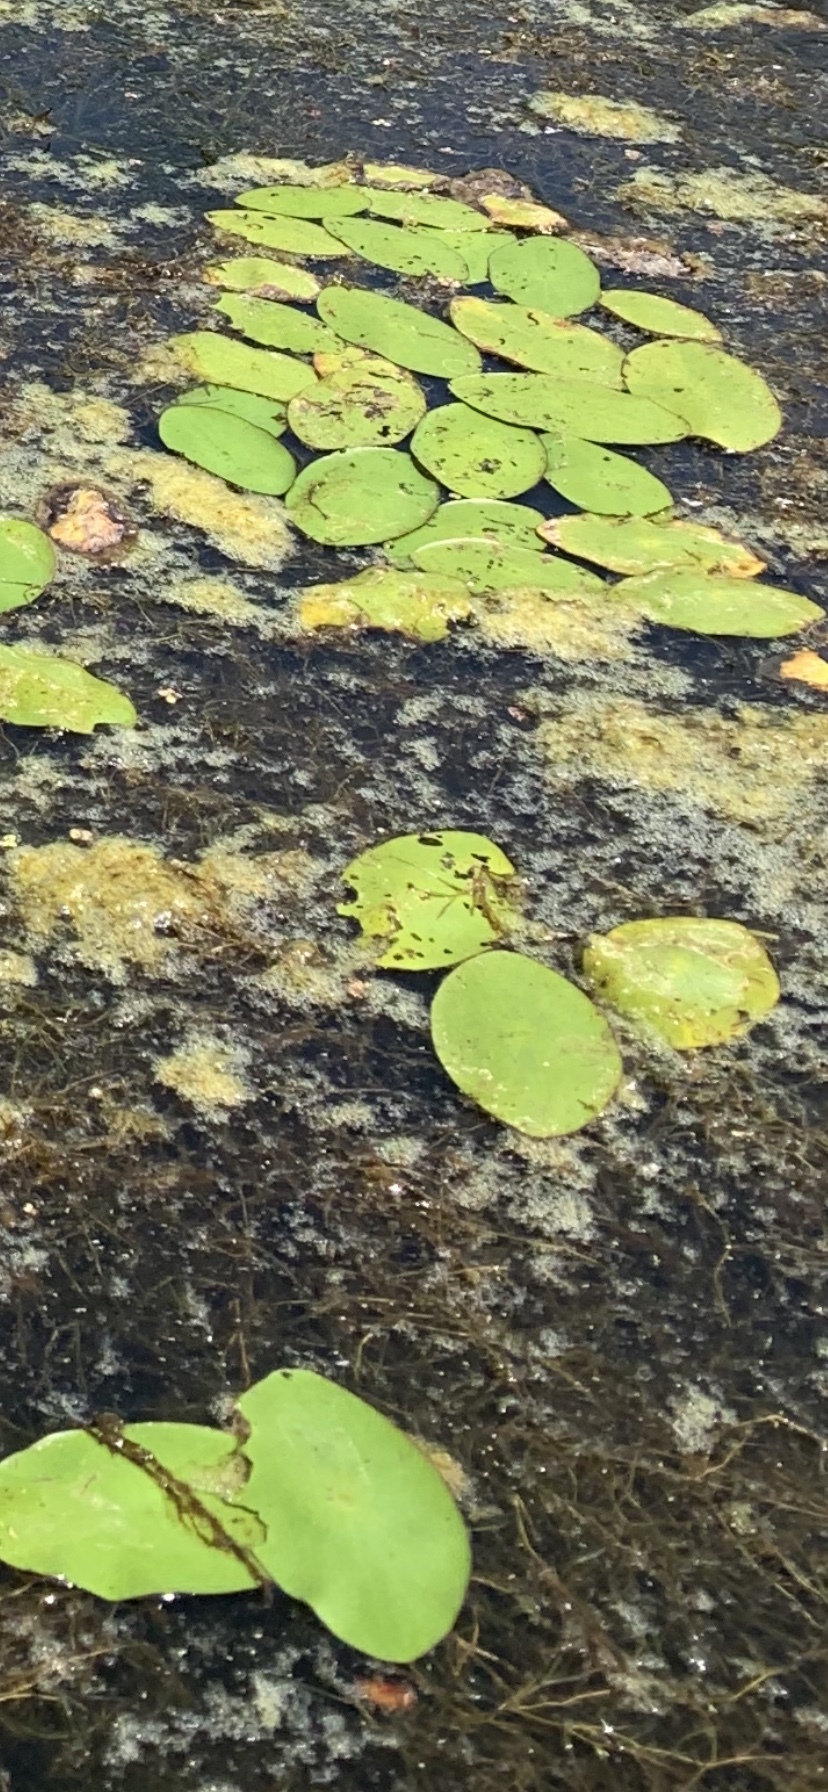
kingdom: Plantae
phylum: Tracheophyta
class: Magnoliopsida
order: Nymphaeales
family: Cabombaceae
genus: Brasenia
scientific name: Brasenia schreberi
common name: Water-shield
